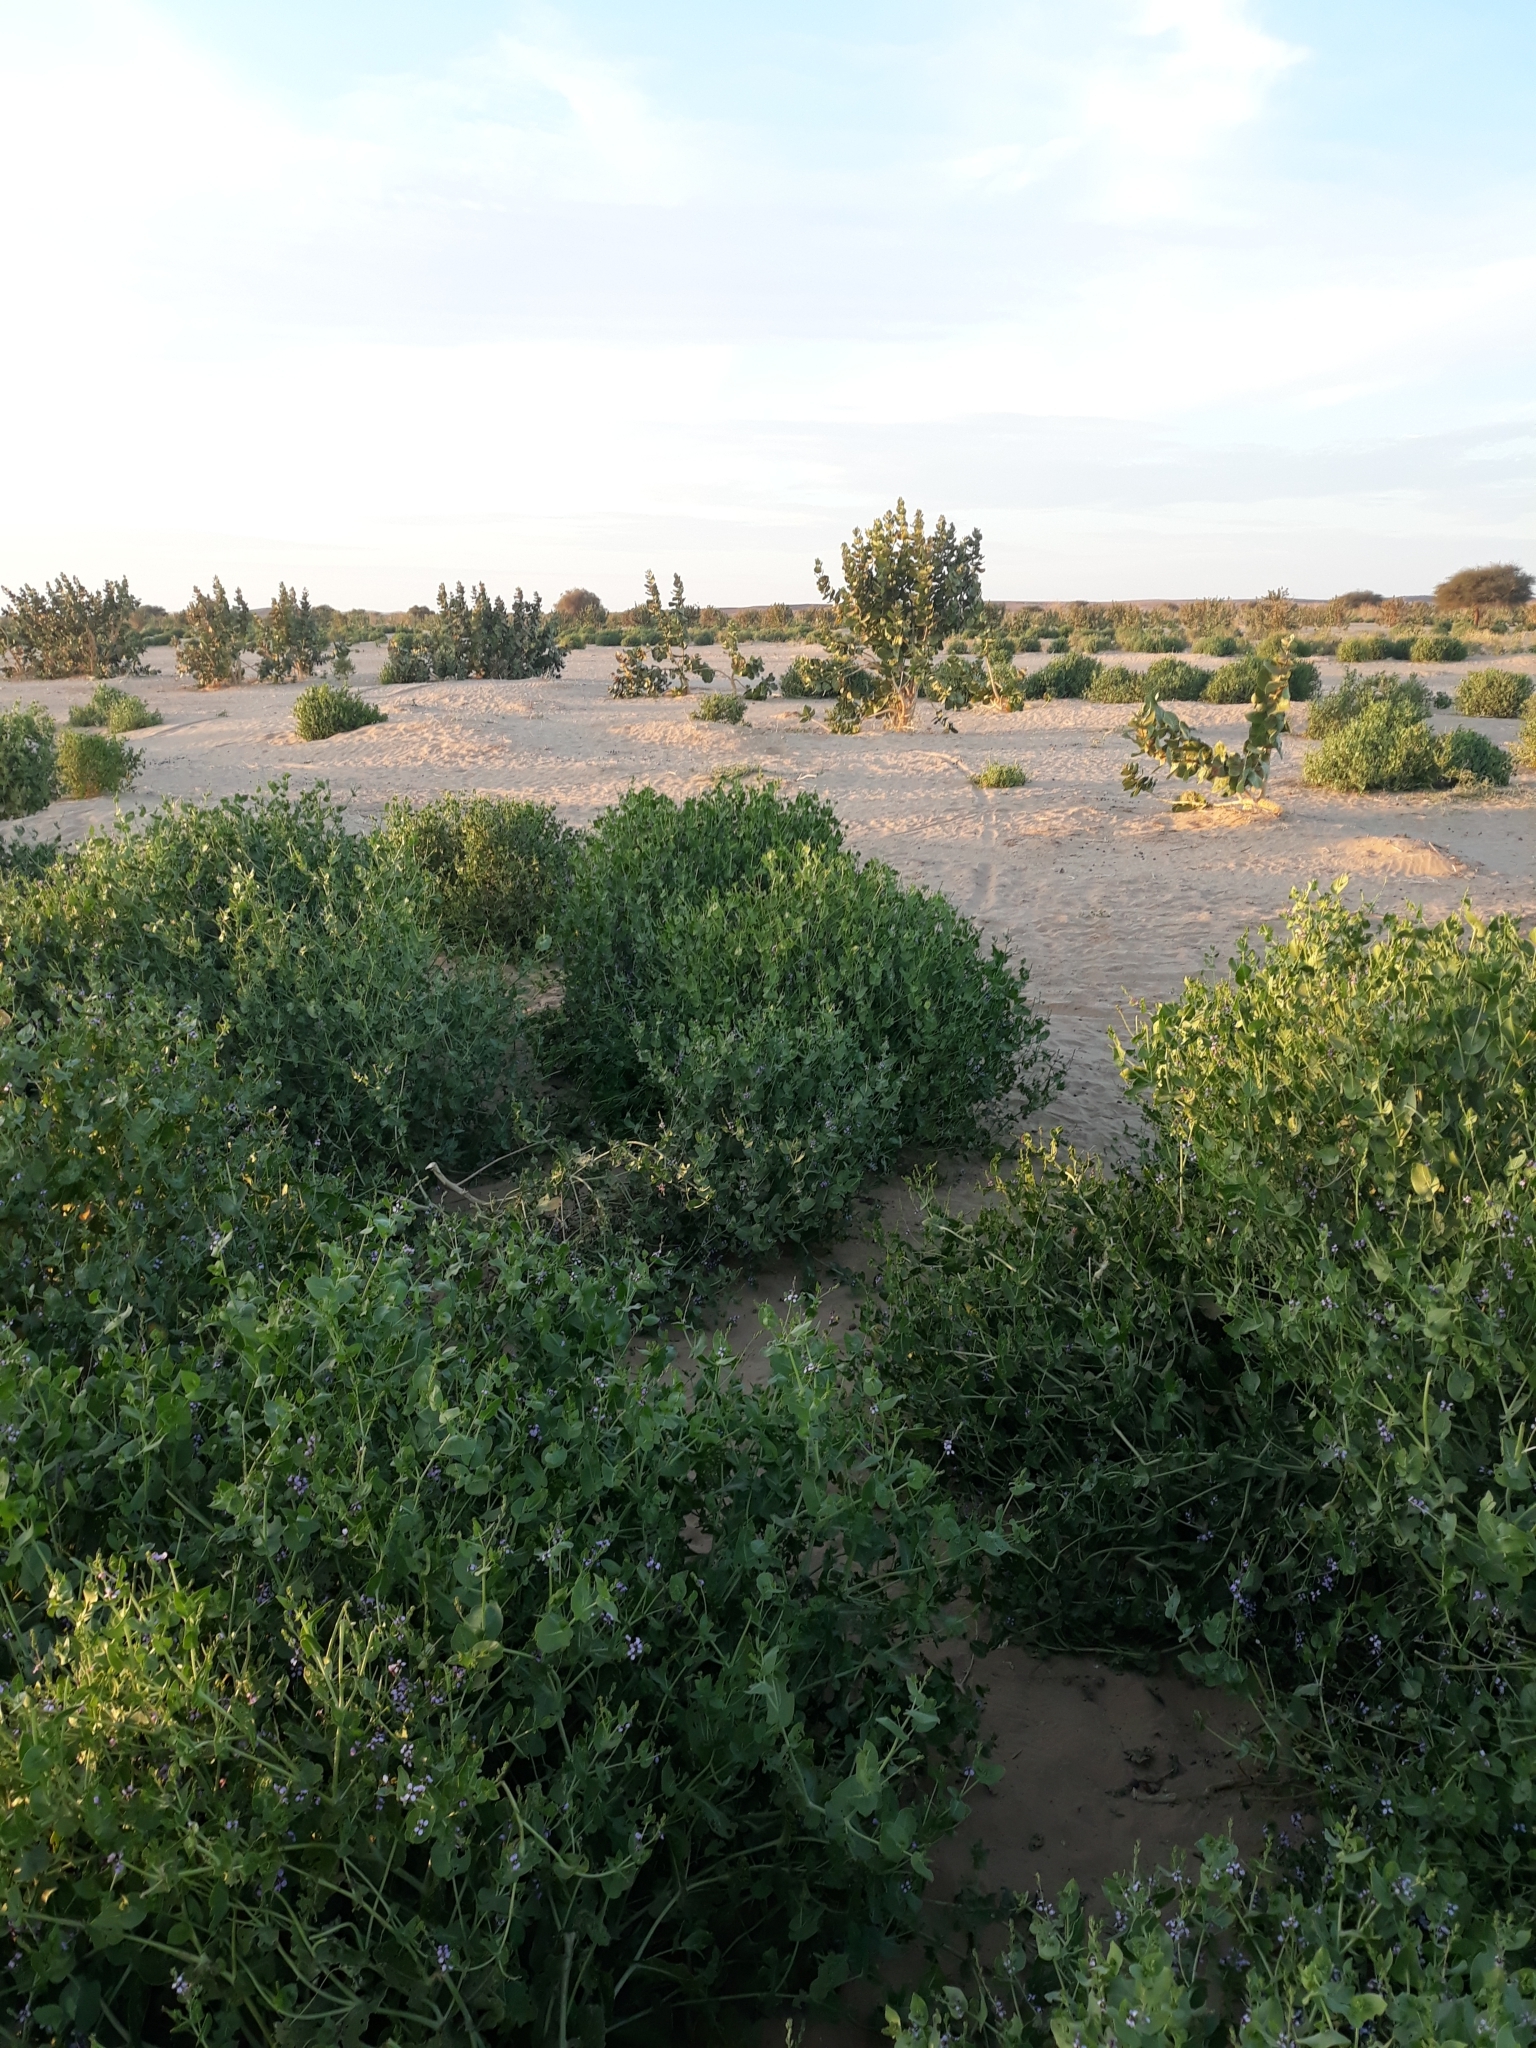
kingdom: Plantae
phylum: Tracheophyta
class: Magnoliopsida
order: Brassicales
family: Brassicaceae
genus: Schouwia
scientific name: Schouwia purpurea
